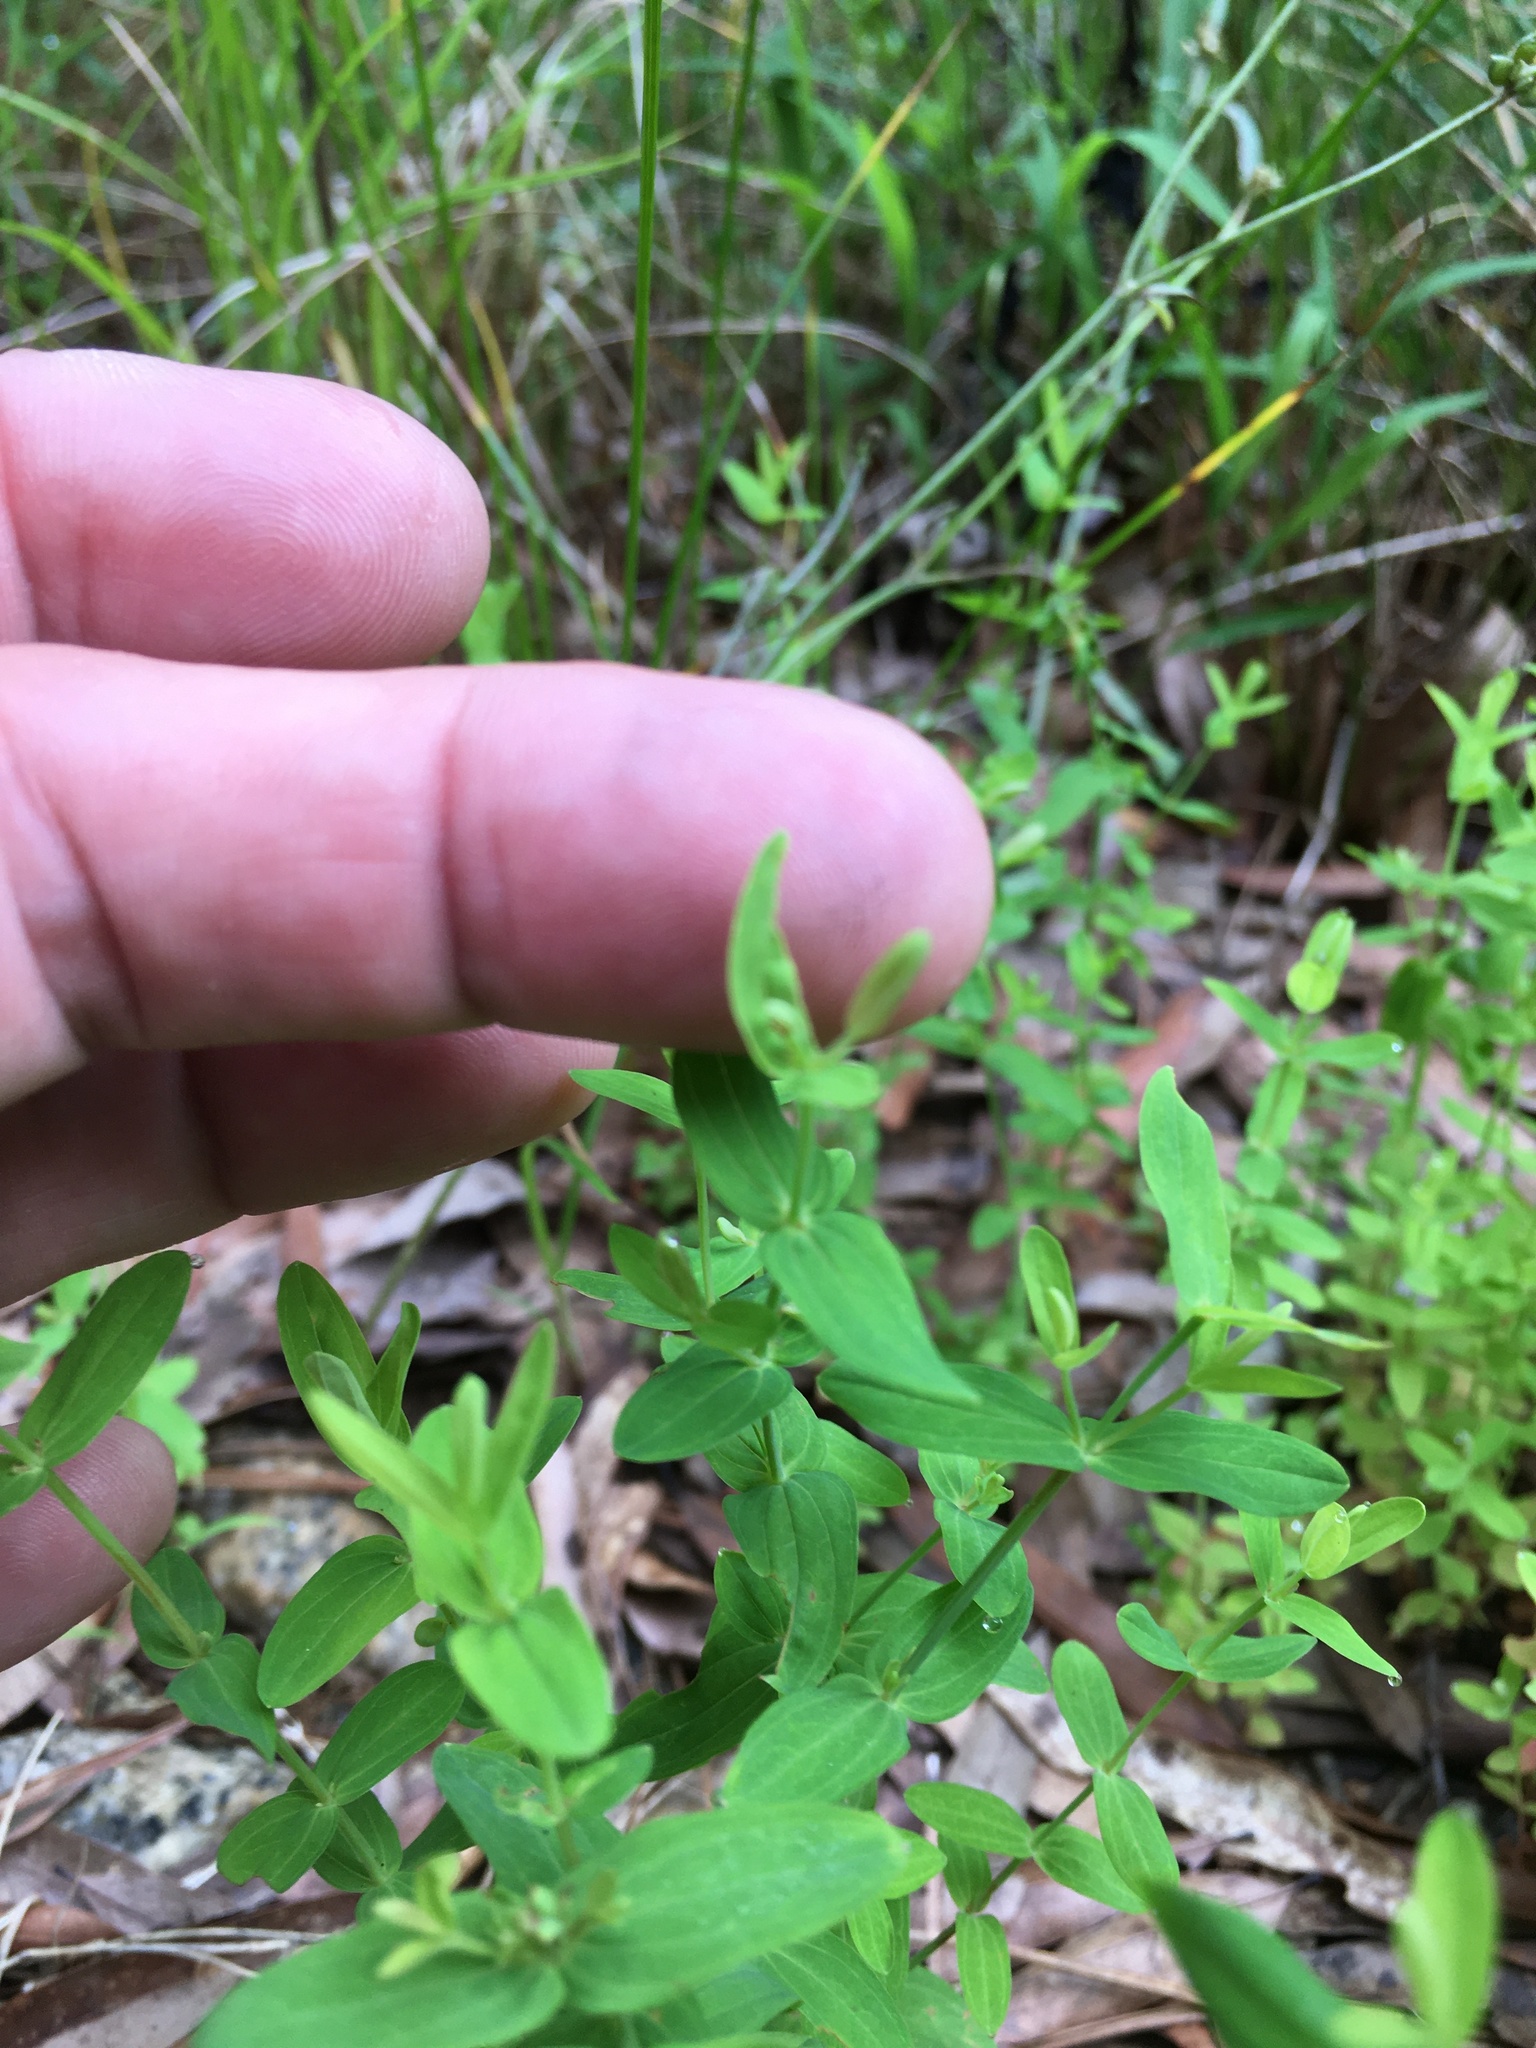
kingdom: Plantae
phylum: Tracheophyta
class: Magnoliopsida
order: Malpighiales
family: Hypericaceae
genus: Hypericum
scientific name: Hypericum mutilum
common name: Dwarf st. john's-wort
